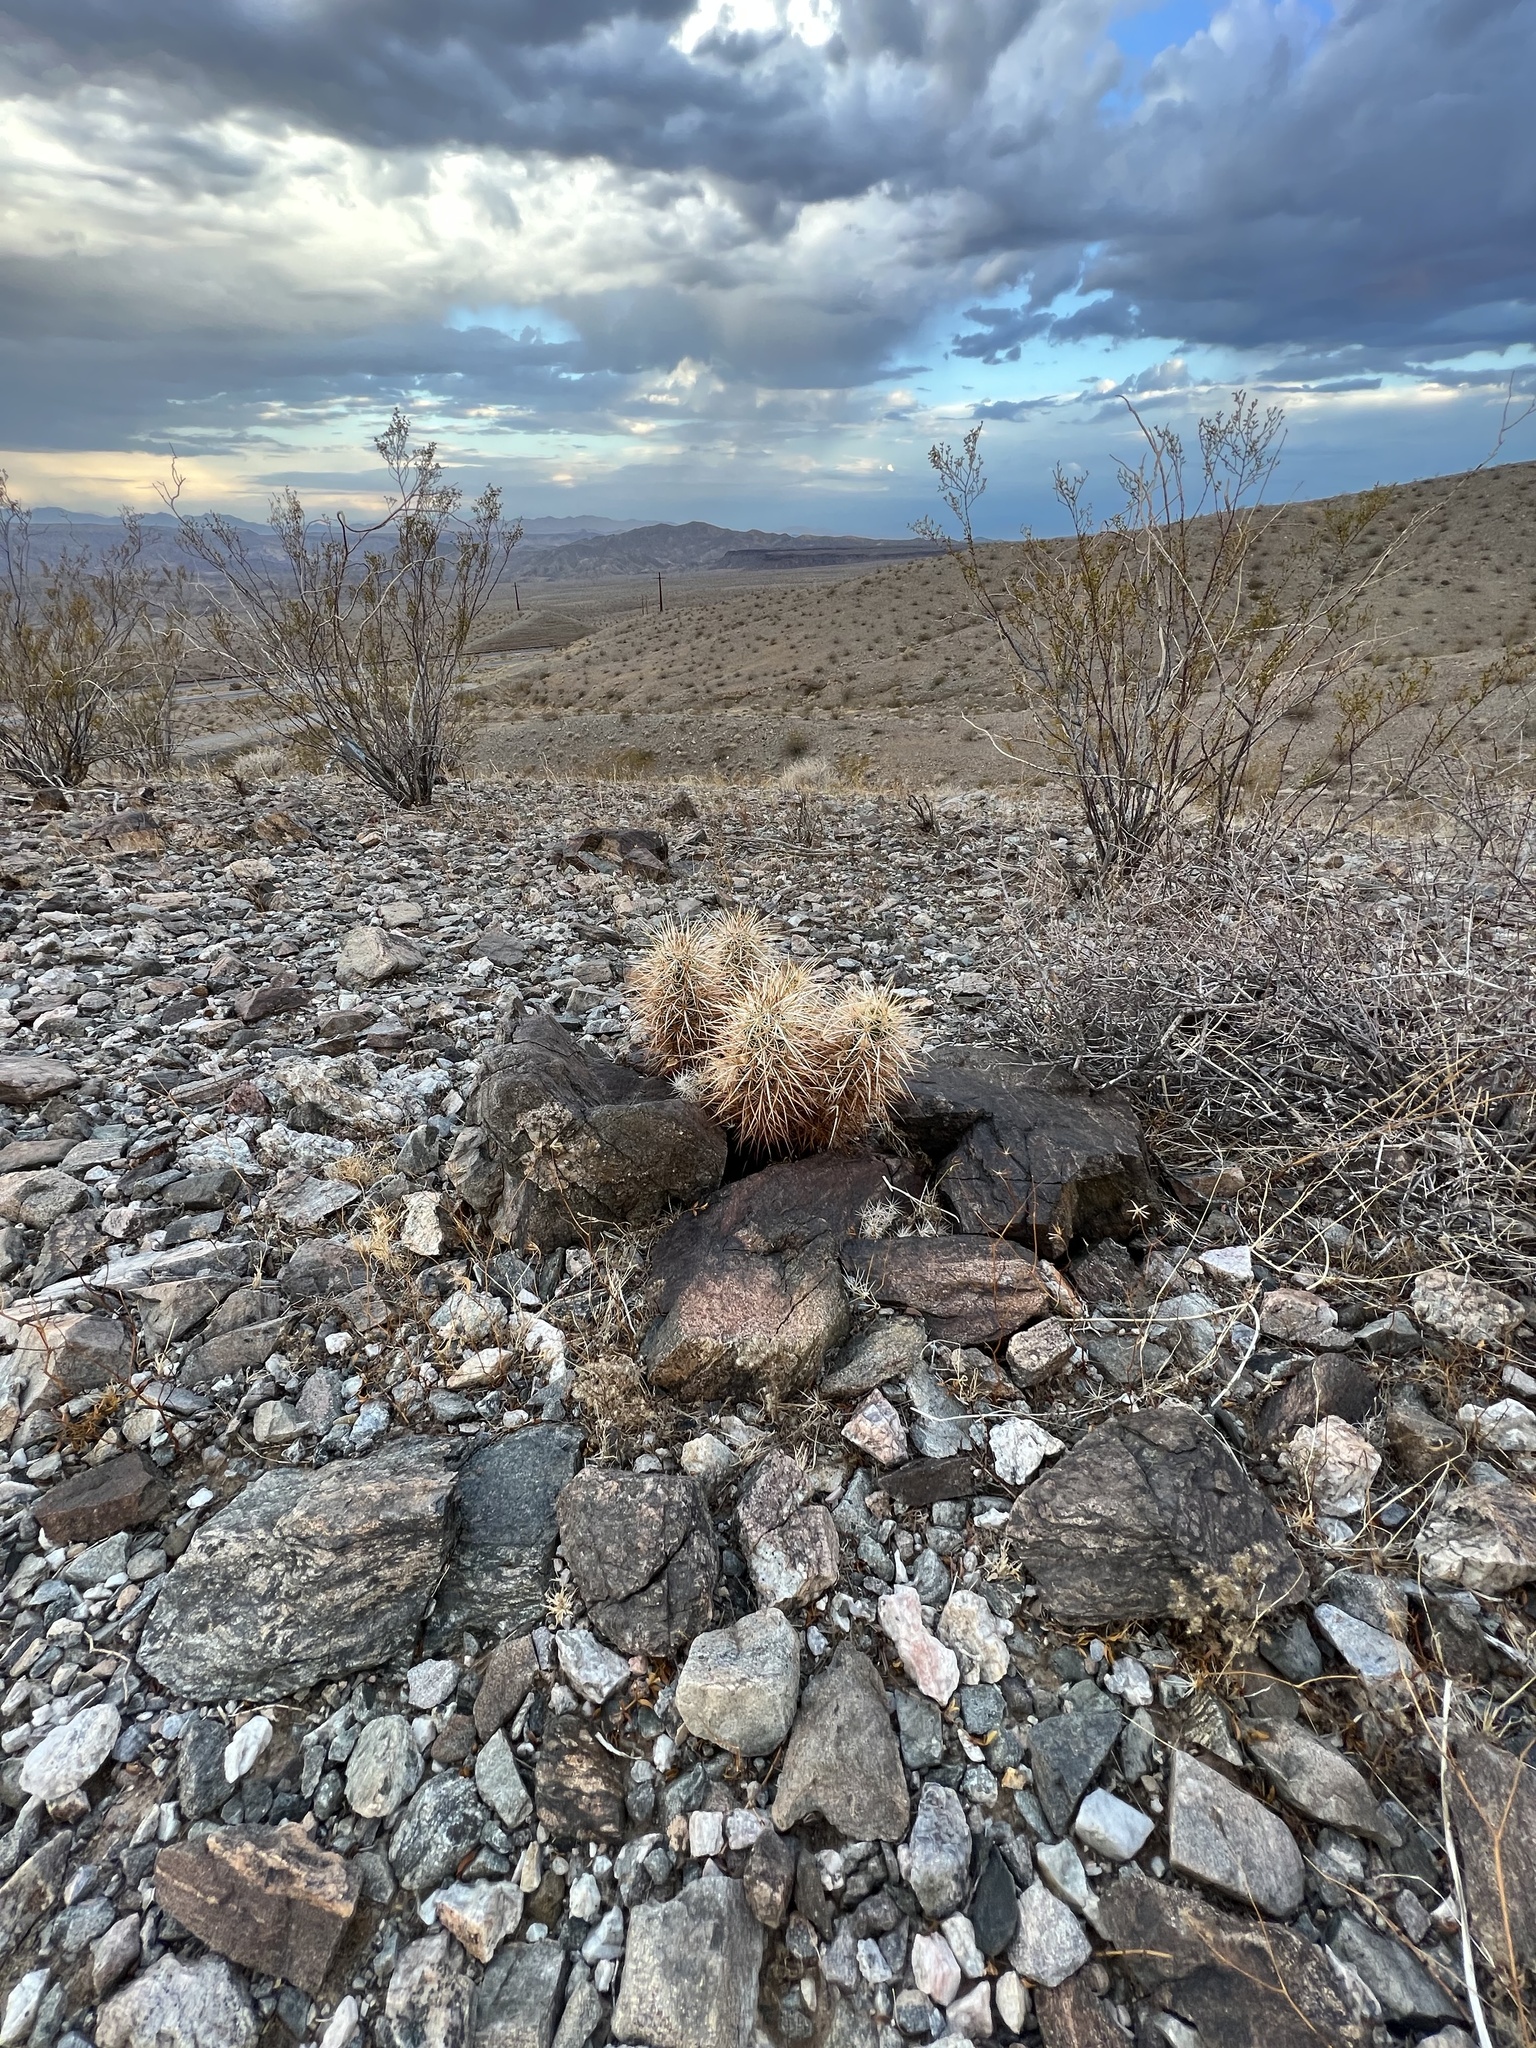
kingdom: Plantae
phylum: Tracheophyta
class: Magnoliopsida
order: Caryophyllales
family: Cactaceae
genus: Echinocereus
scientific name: Echinocereus engelmannii
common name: Engelmann's hedgehog cactus
